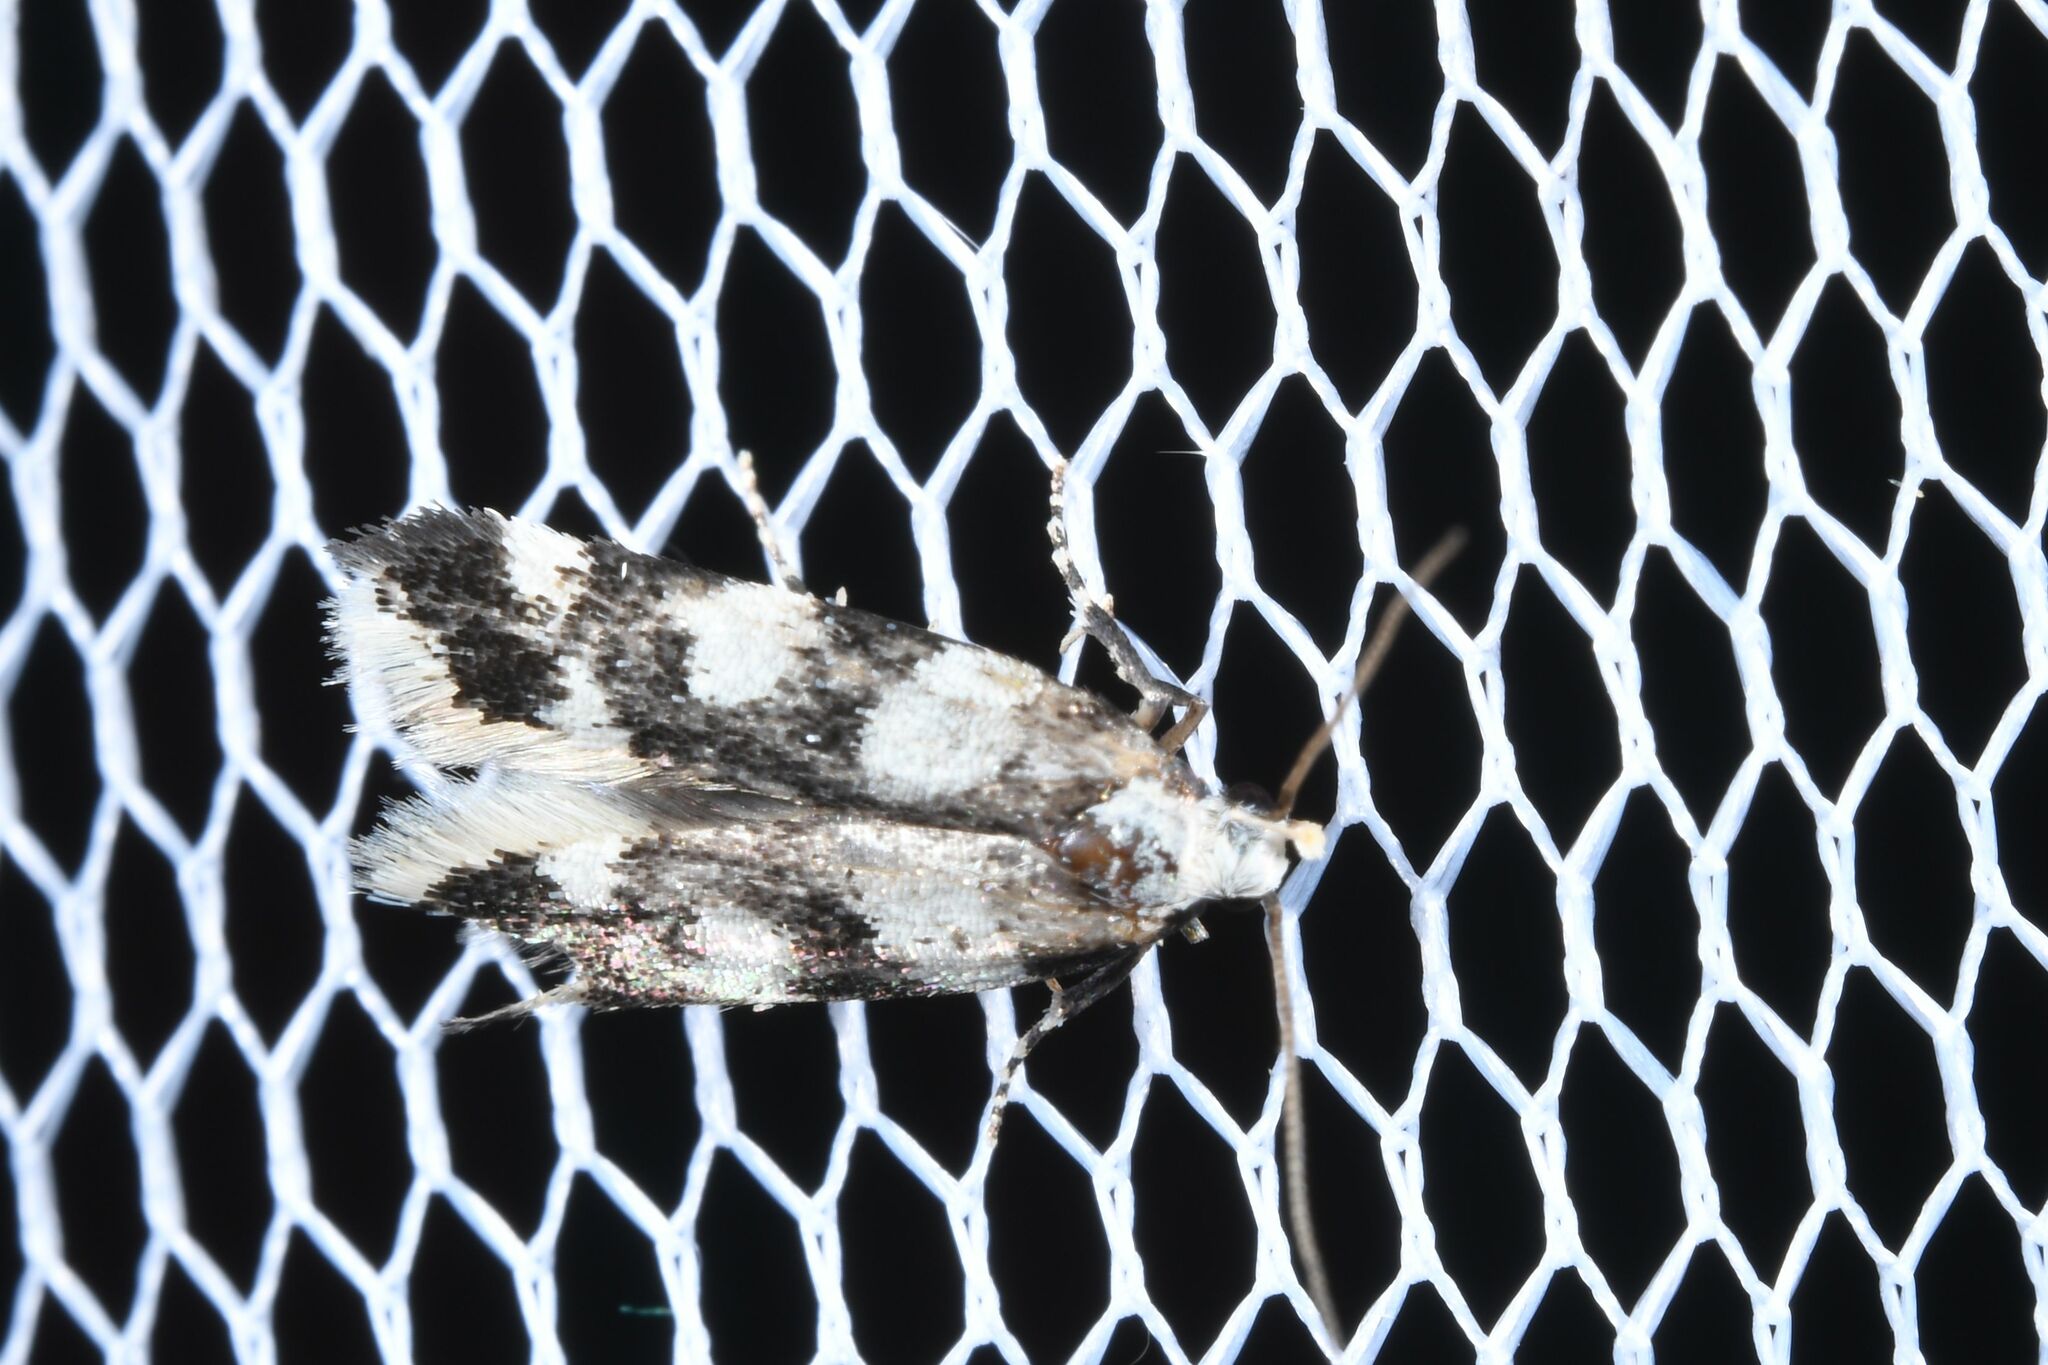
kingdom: Animalia
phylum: Arthropoda
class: Insecta
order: Lepidoptera
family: Gelechiidae
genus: Pseudotelphusa
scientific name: Pseudotelphusa tessella
